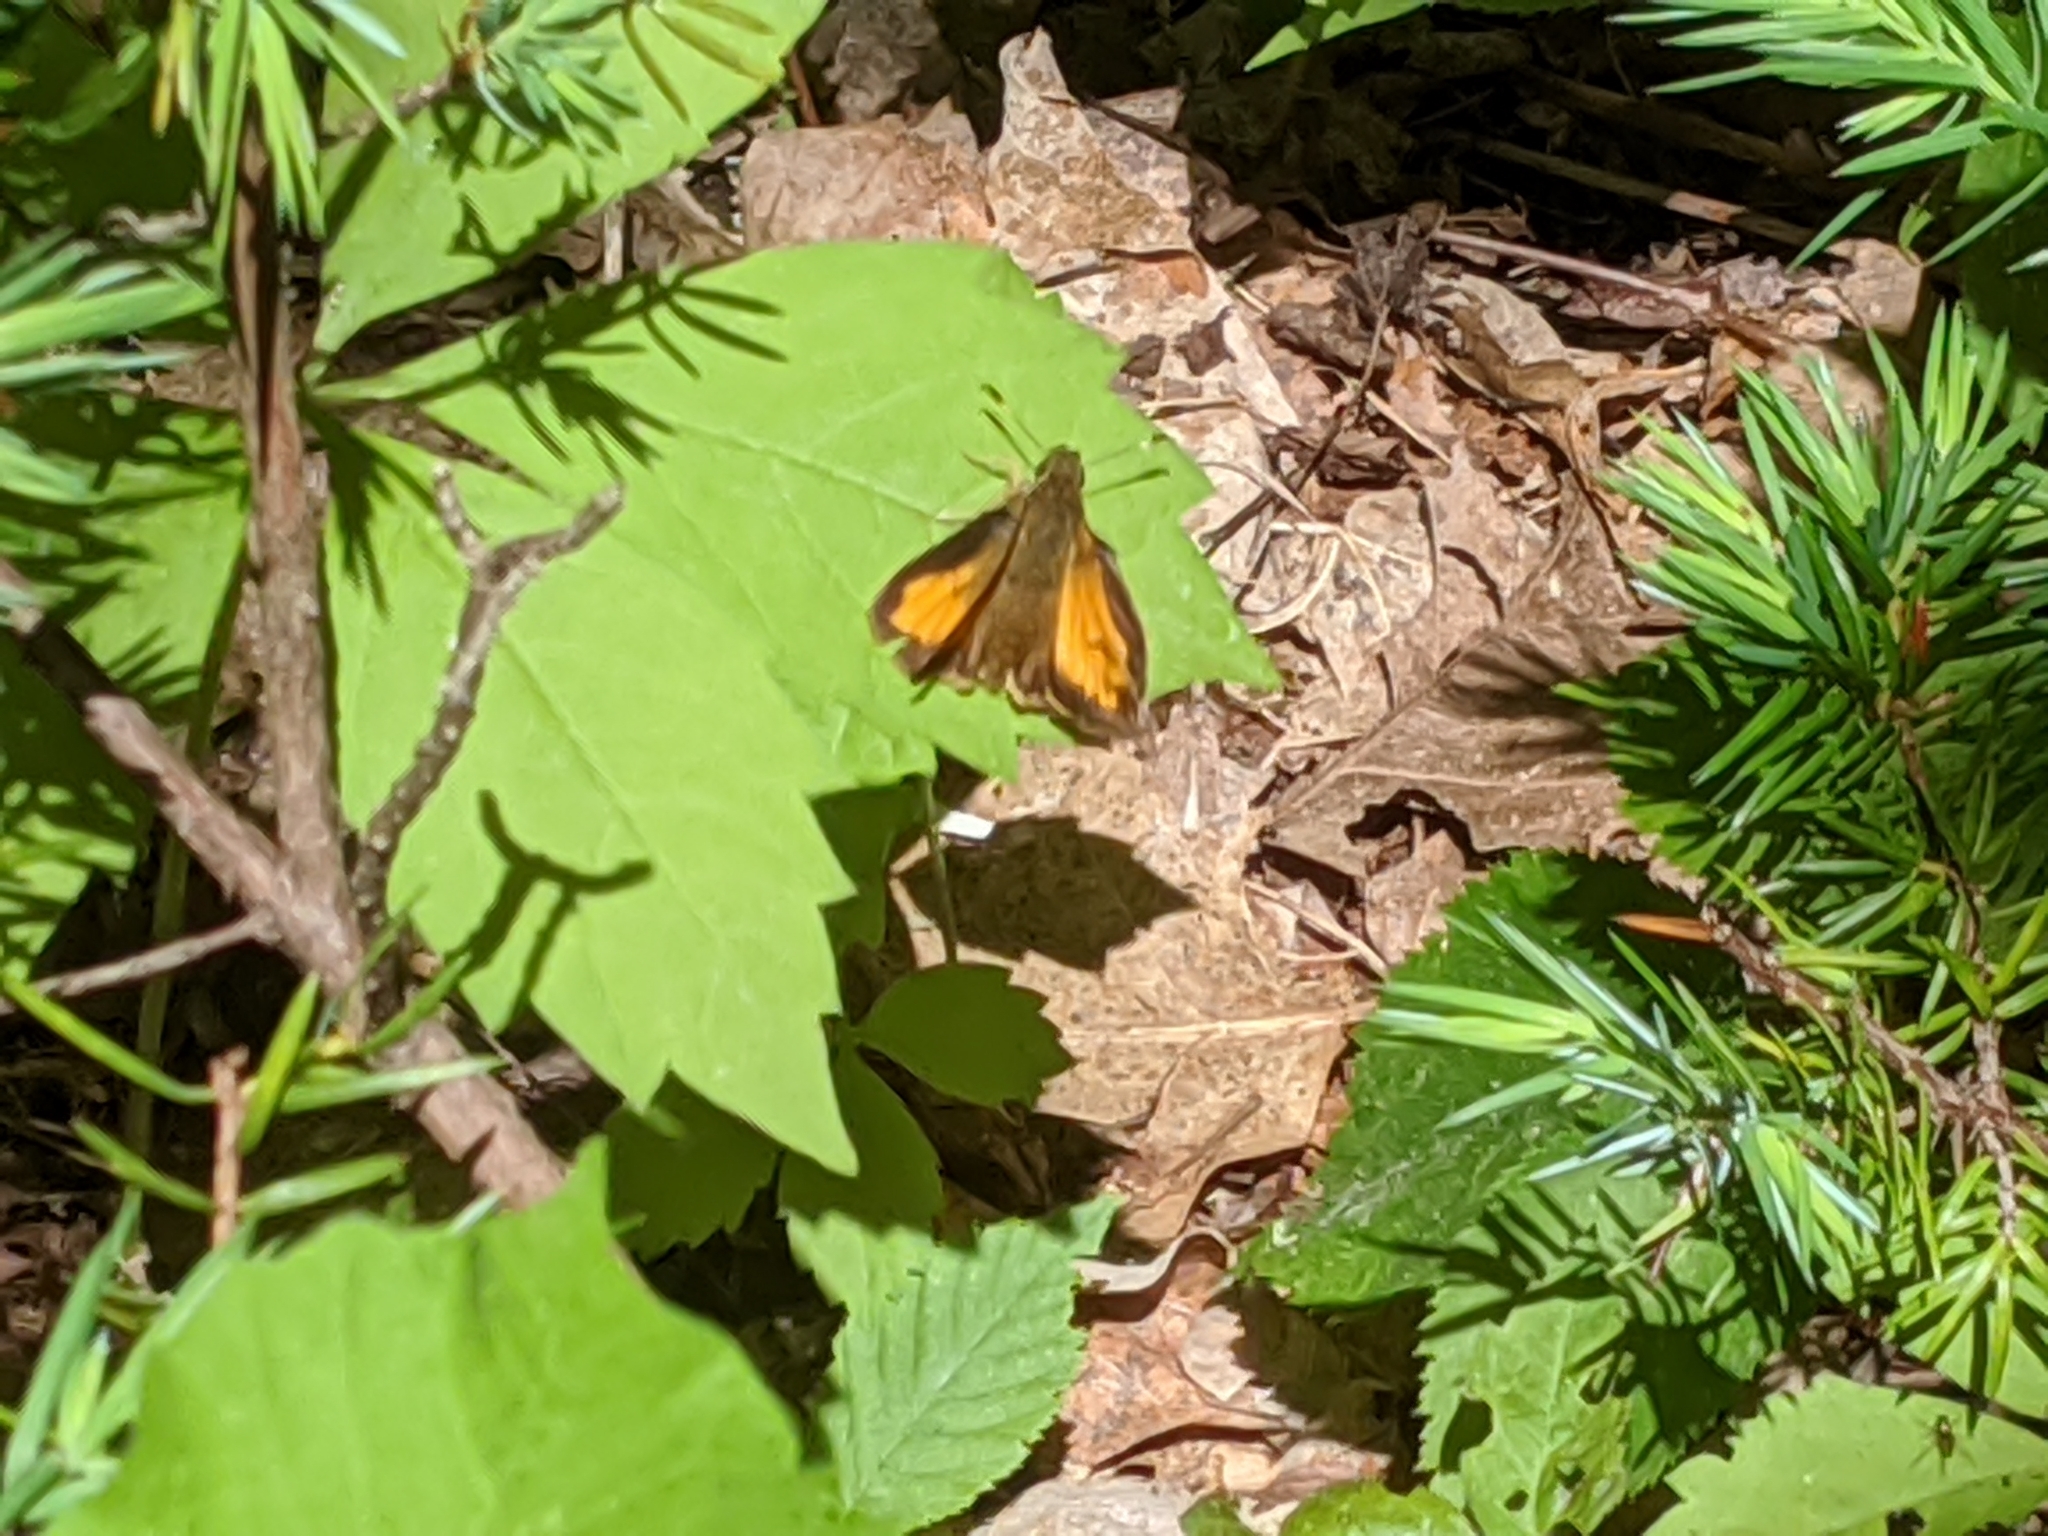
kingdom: Animalia
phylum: Arthropoda
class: Insecta
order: Lepidoptera
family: Hesperiidae
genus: Lon
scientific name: Lon hobomok
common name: Hobomok skipper
